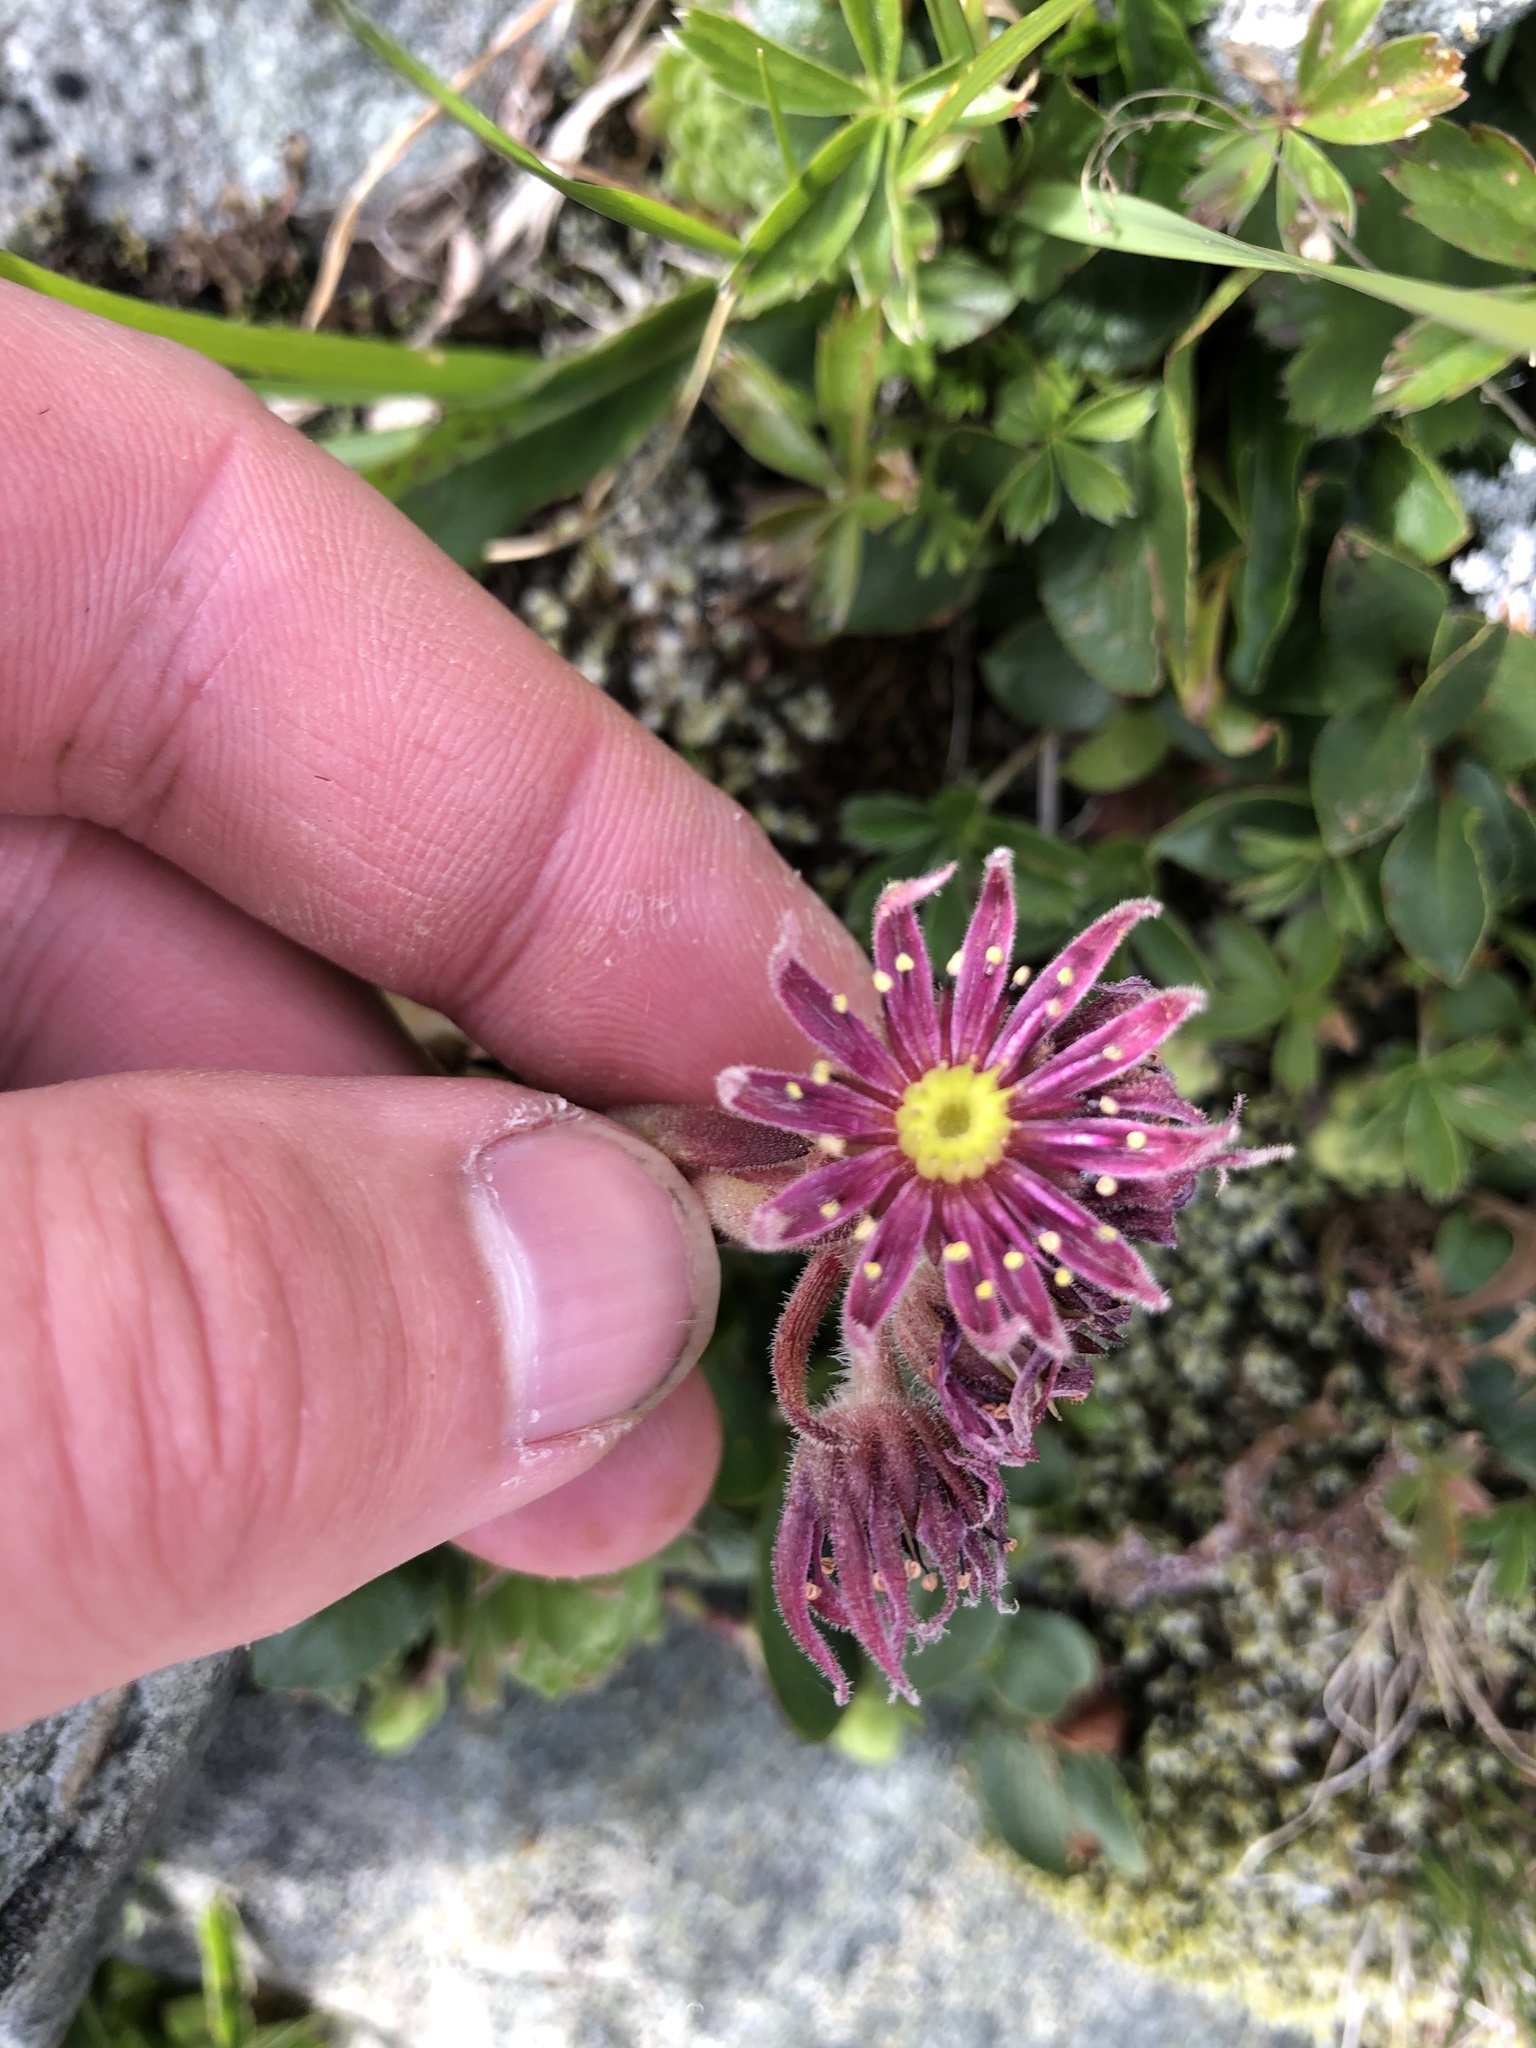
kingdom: Plantae
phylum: Tracheophyta
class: Magnoliopsida
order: Saxifragales
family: Crassulaceae
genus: Sempervivum
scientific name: Sempervivum montanum
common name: Mountain house-leek
